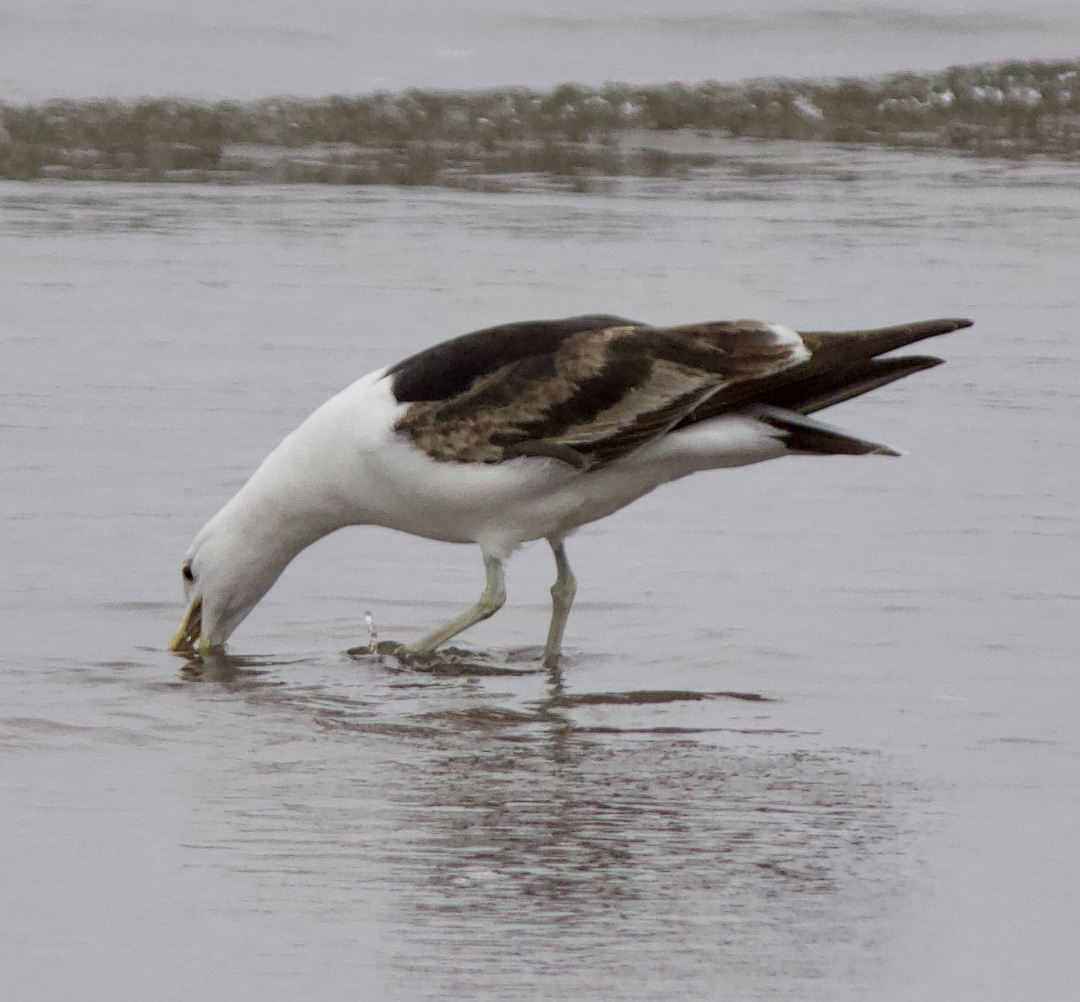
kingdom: Animalia
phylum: Chordata
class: Aves
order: Charadriiformes
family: Laridae
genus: Larus
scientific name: Larus dominicanus
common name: Kelp gull
